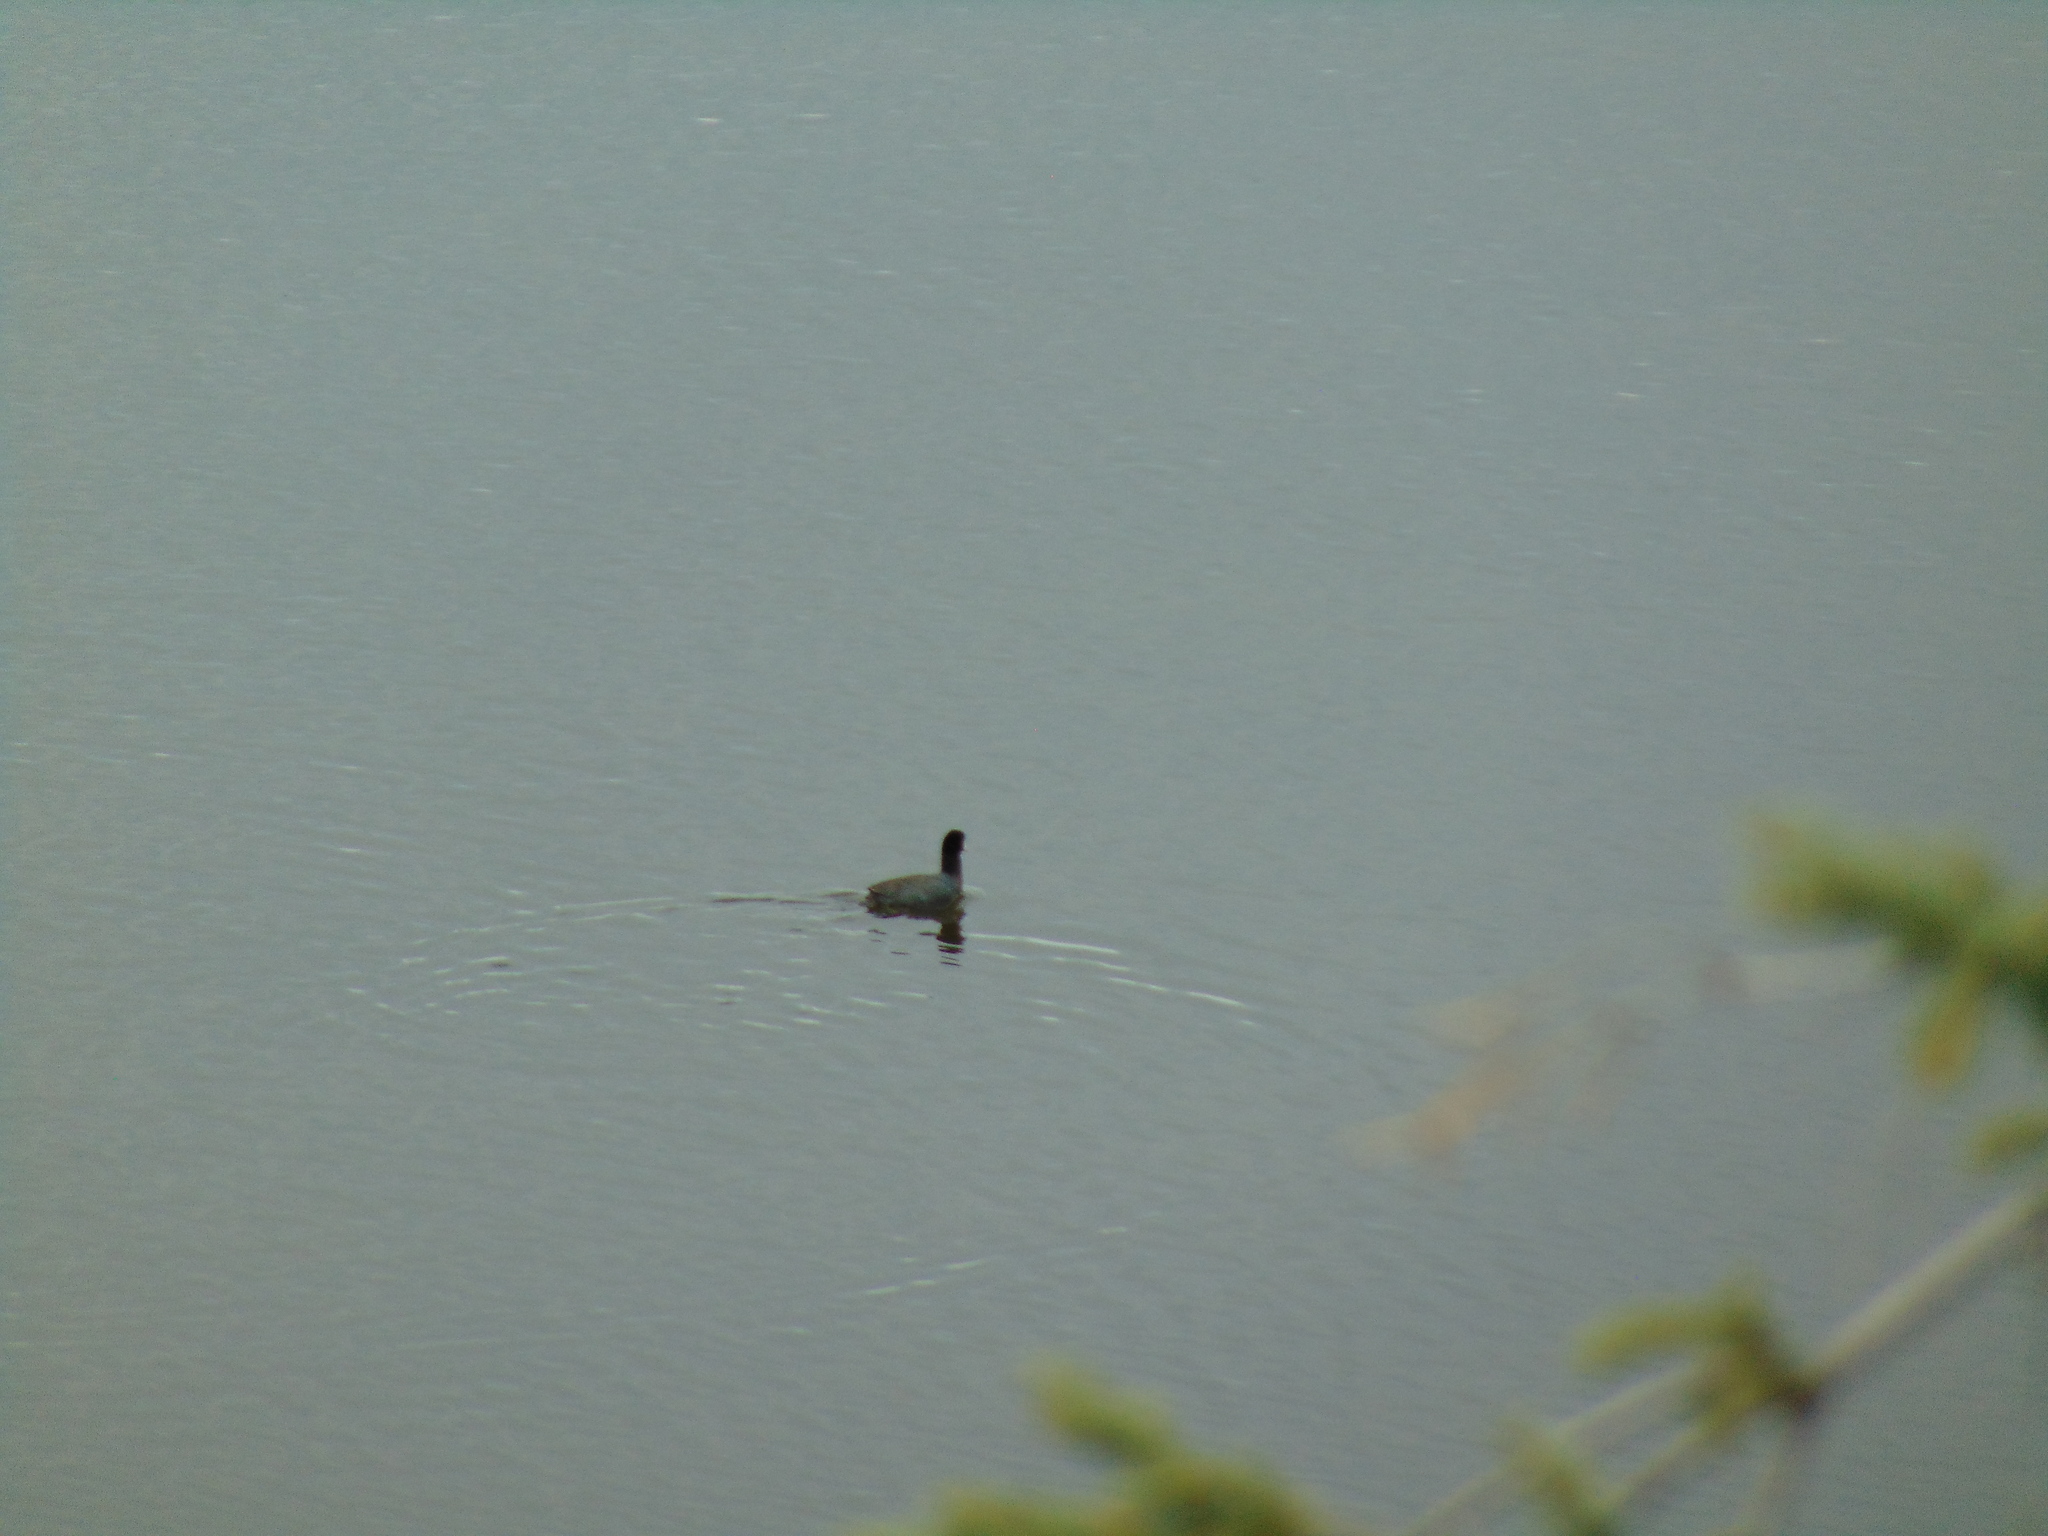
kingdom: Animalia
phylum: Chordata
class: Aves
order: Gruiformes
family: Rallidae
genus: Fulica
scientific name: Fulica americana
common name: American coot
